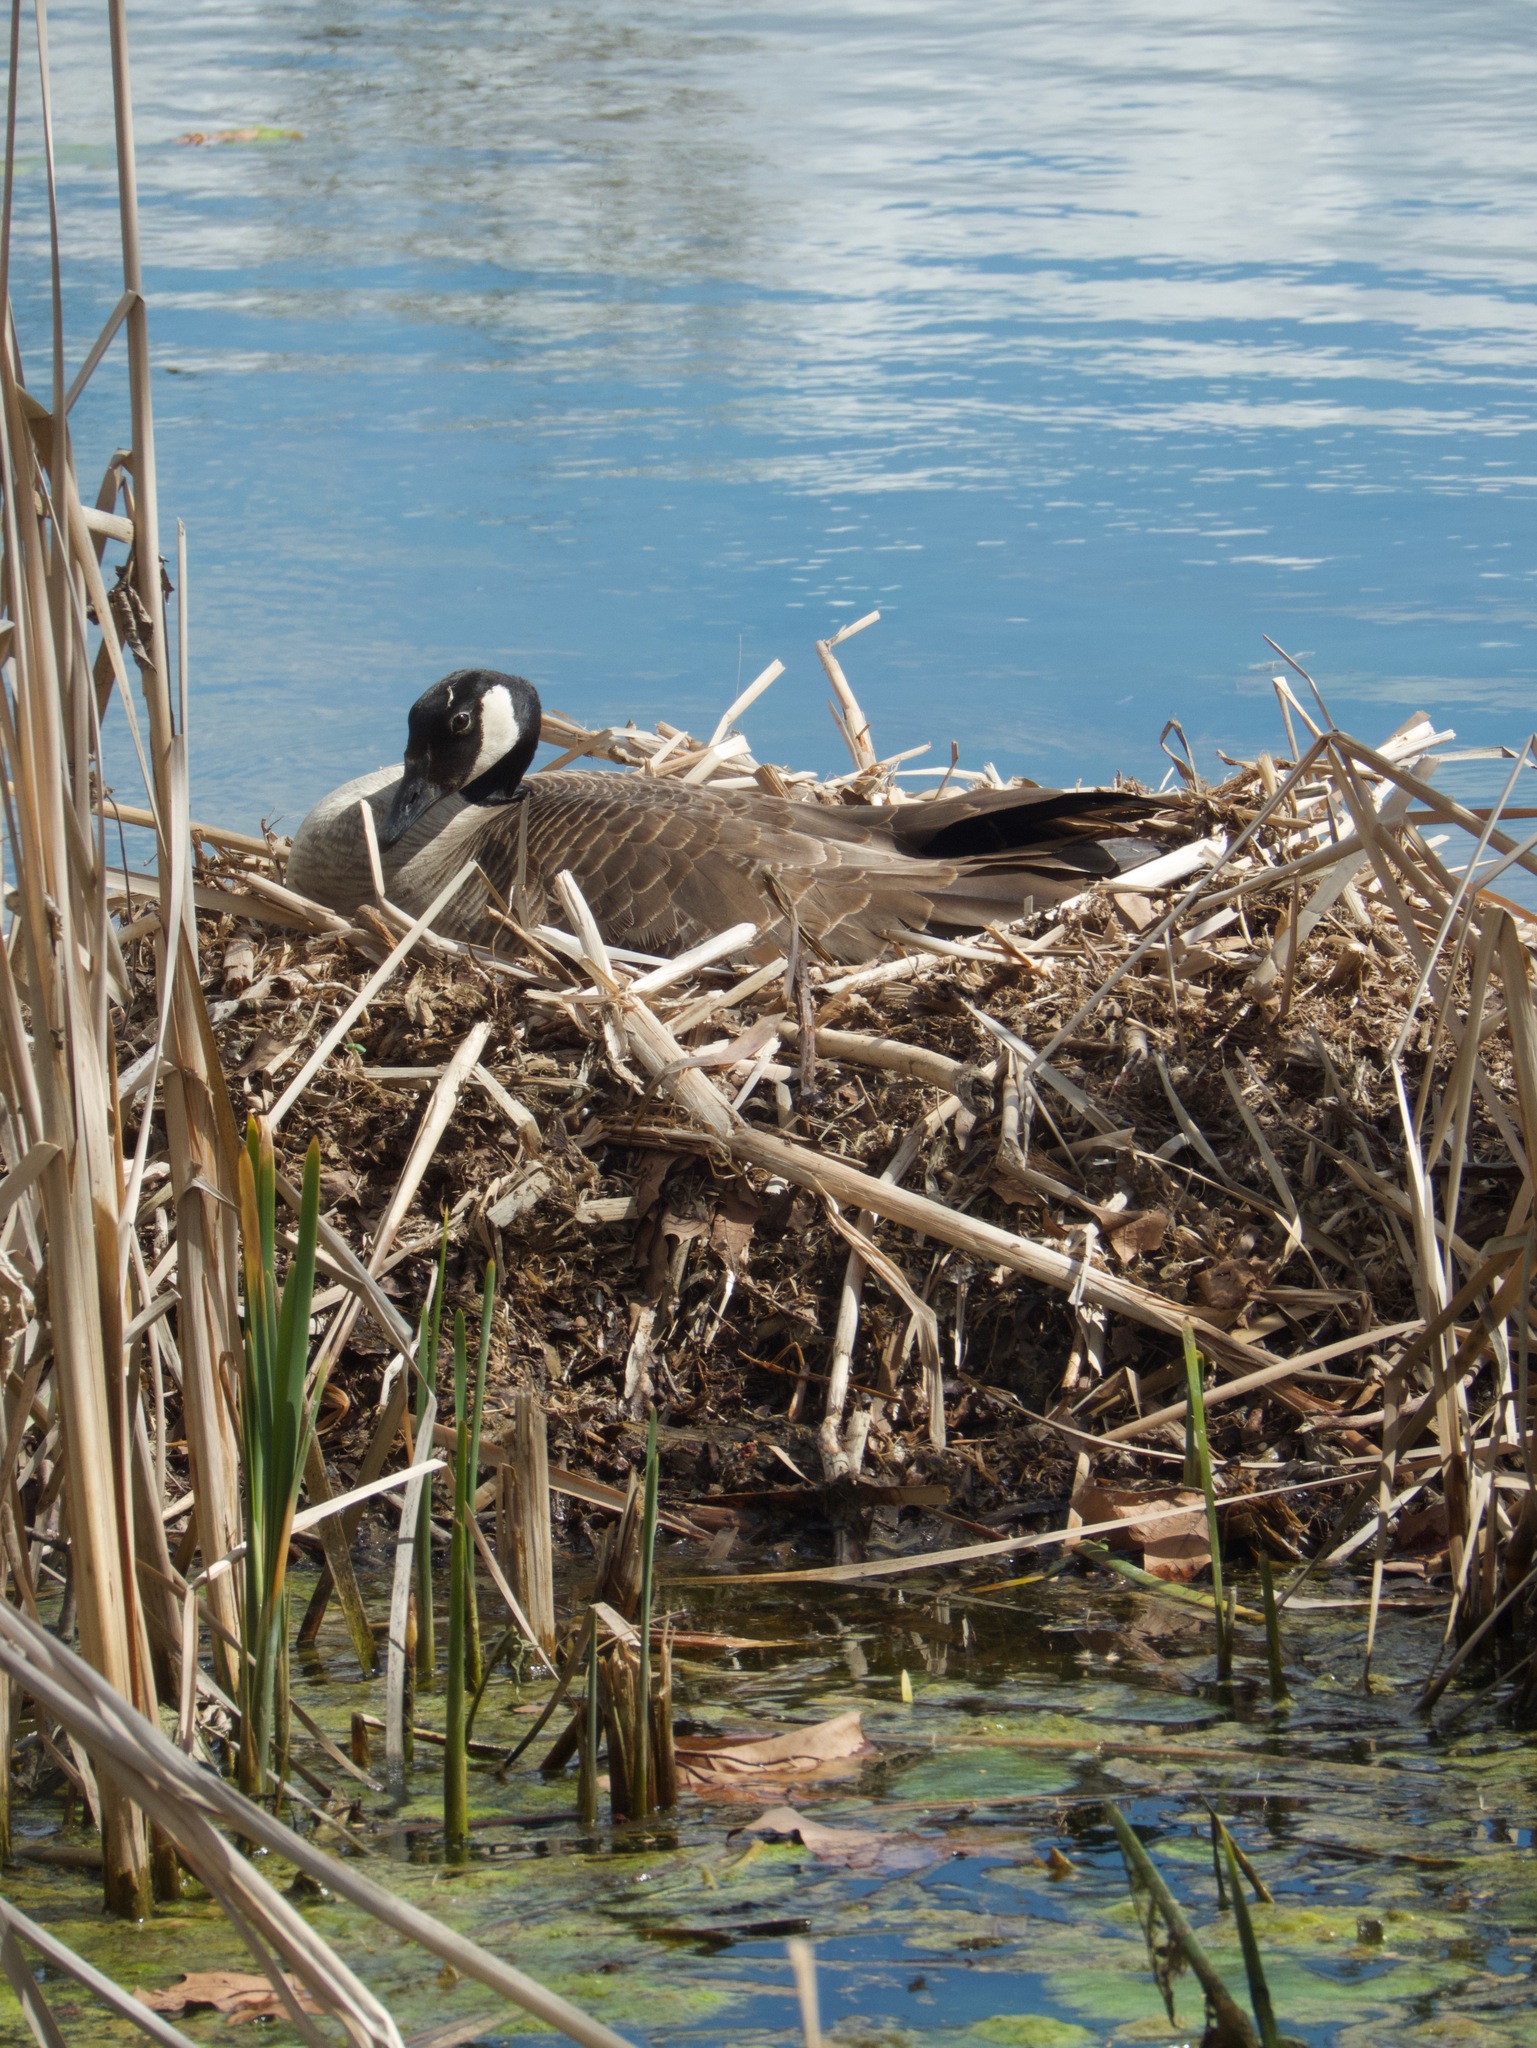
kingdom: Animalia
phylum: Chordata
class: Aves
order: Anseriformes
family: Anatidae
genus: Branta
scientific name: Branta canadensis
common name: Canada goose
